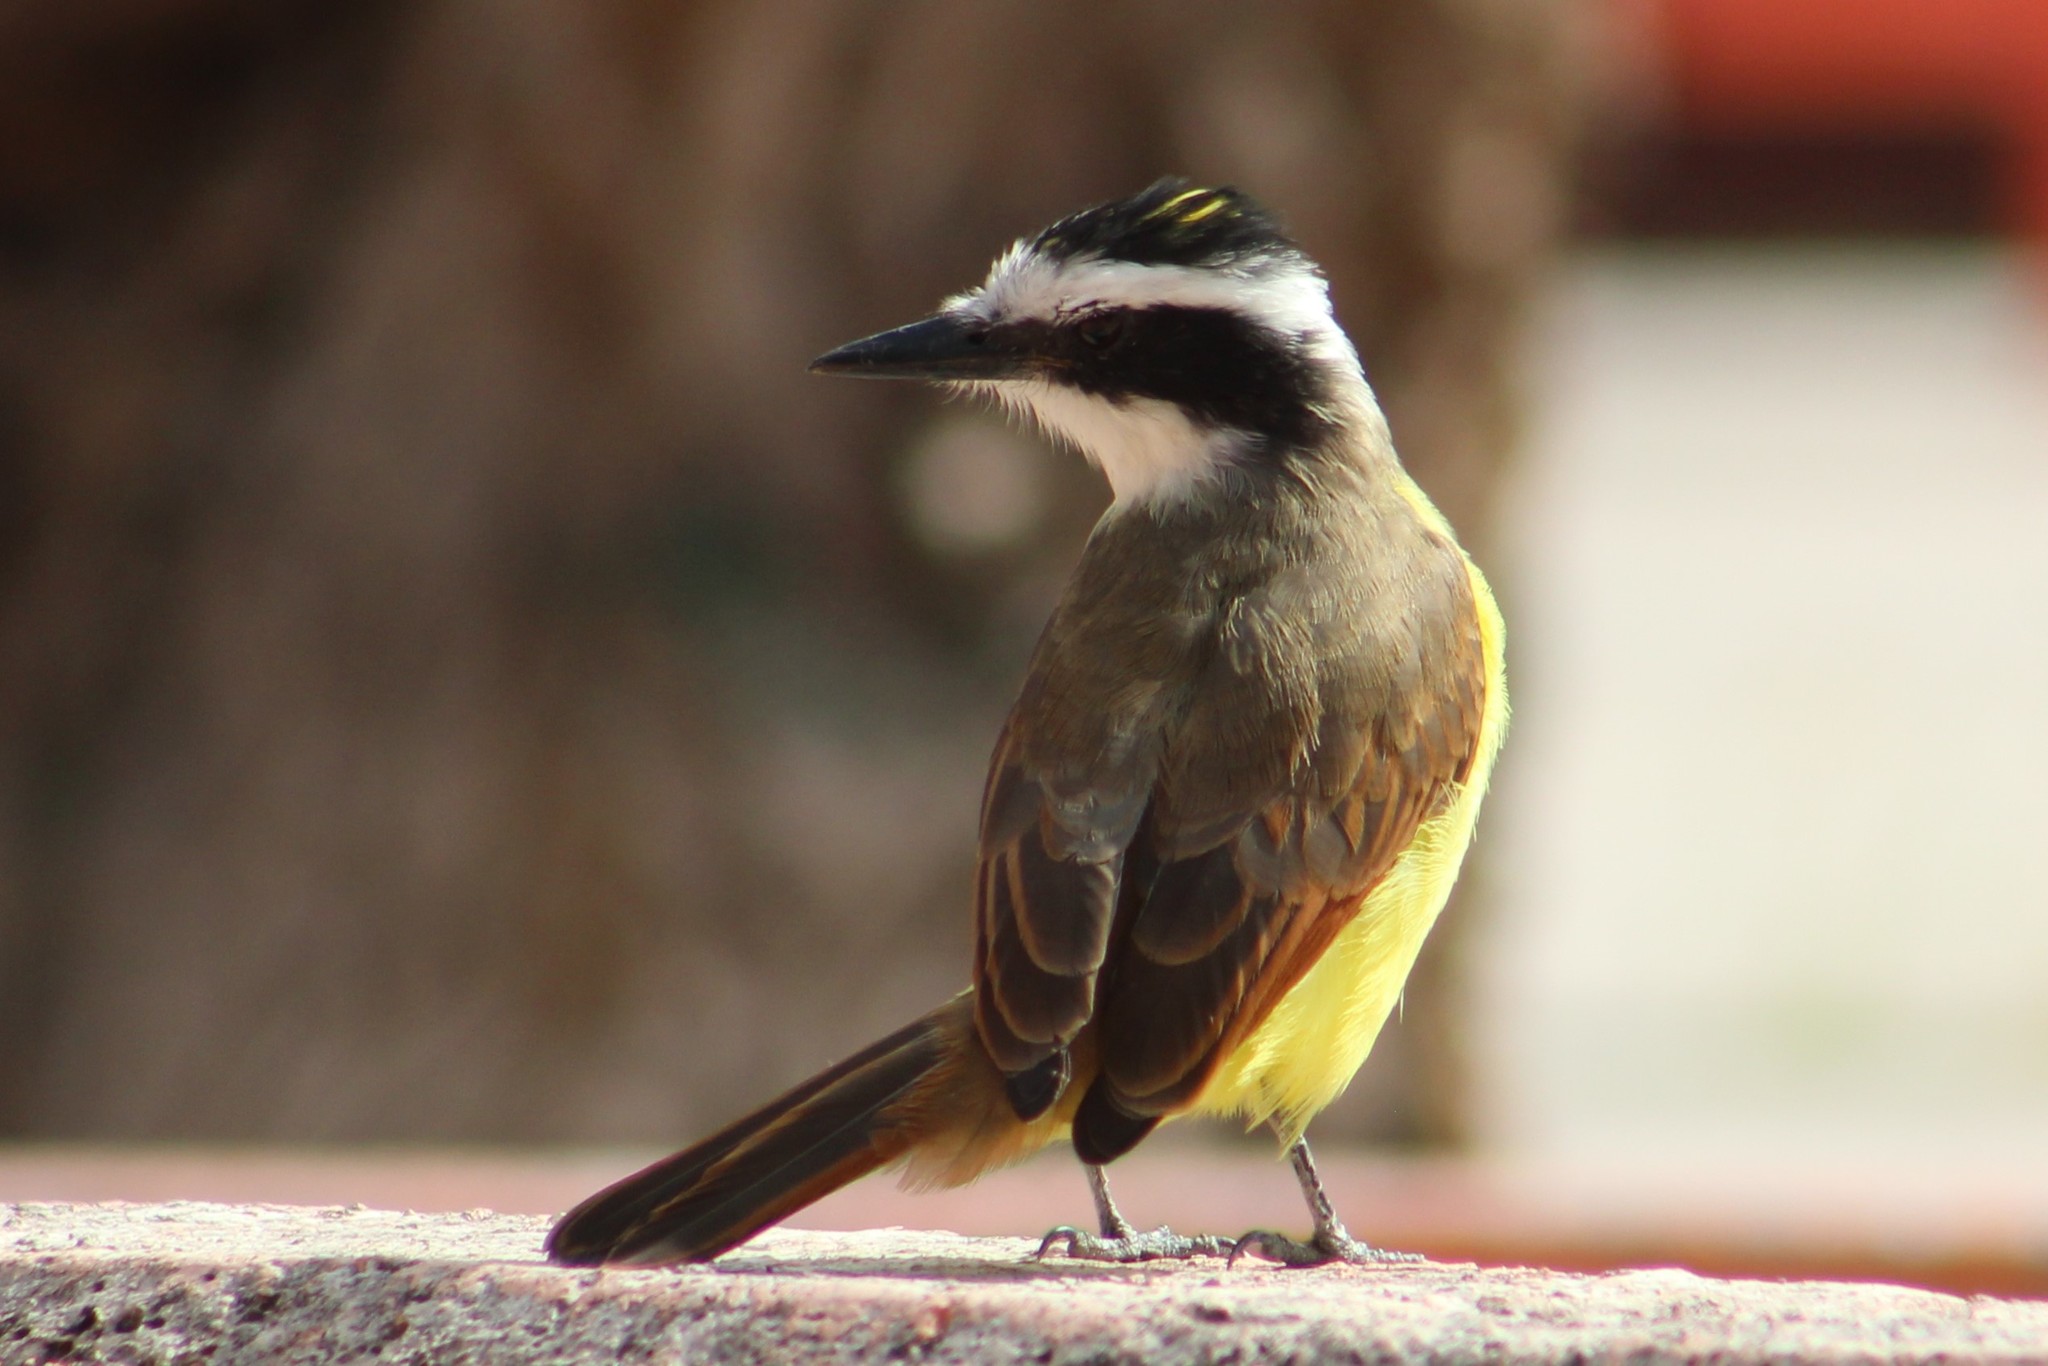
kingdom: Animalia
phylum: Chordata
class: Aves
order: Passeriformes
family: Tyrannidae
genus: Pitangus
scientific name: Pitangus sulphuratus
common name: Great kiskadee
